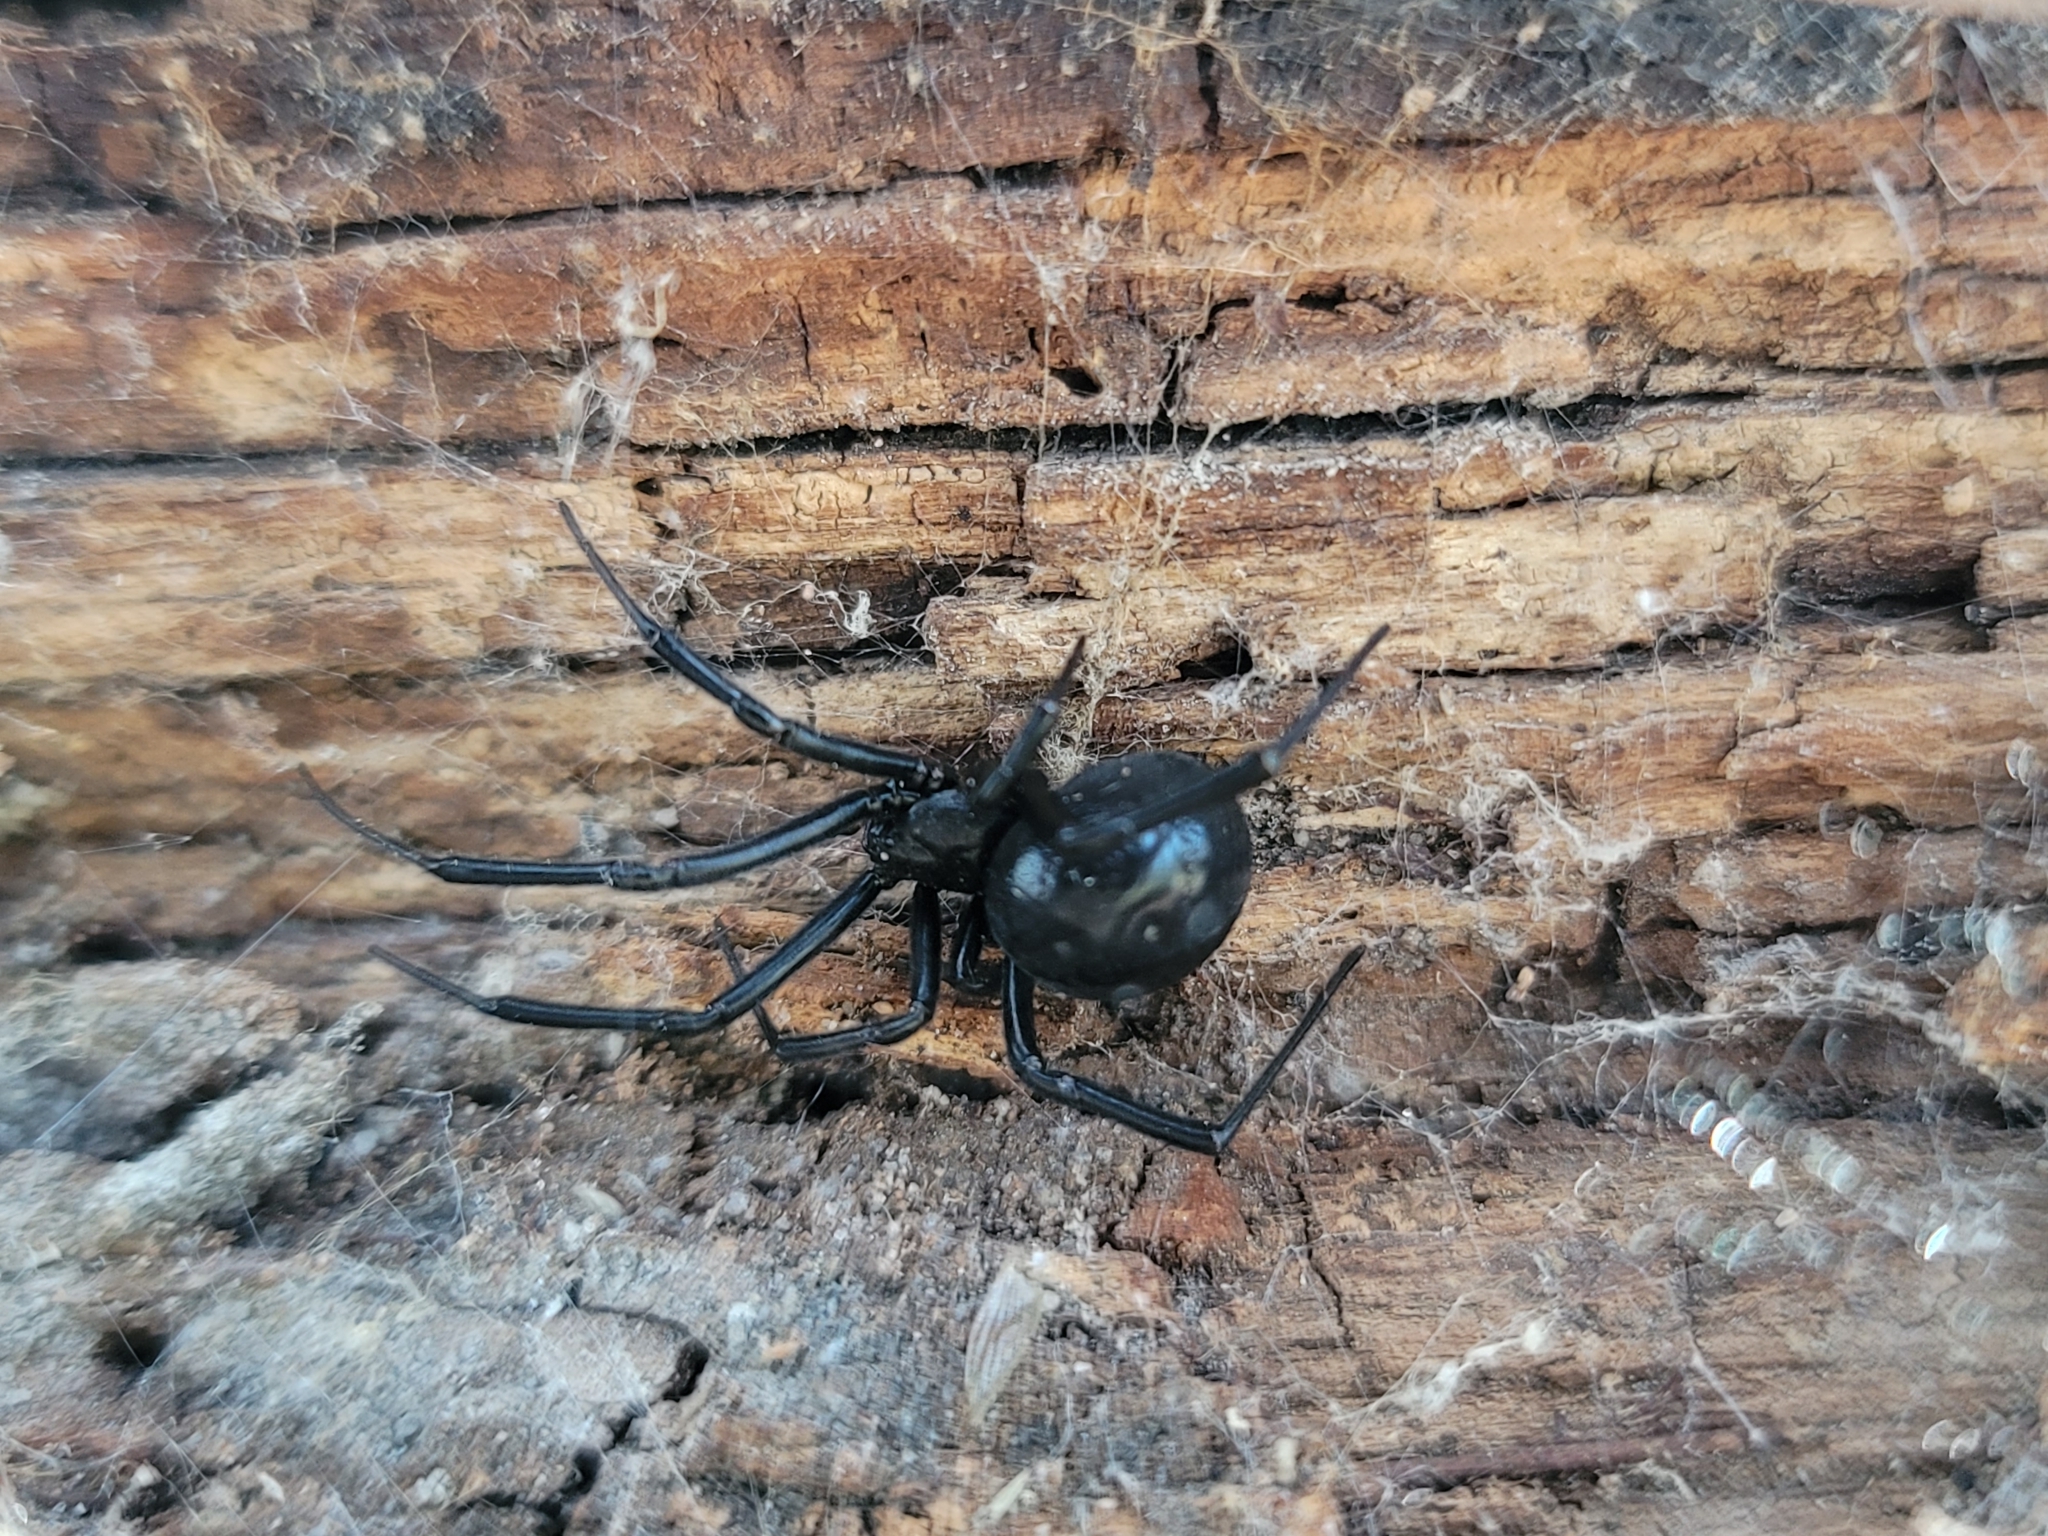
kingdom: Animalia
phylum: Arthropoda
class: Arachnida
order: Araneae
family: Theridiidae
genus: Latrodectus
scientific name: Latrodectus mactans
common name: Cobweb spiders
